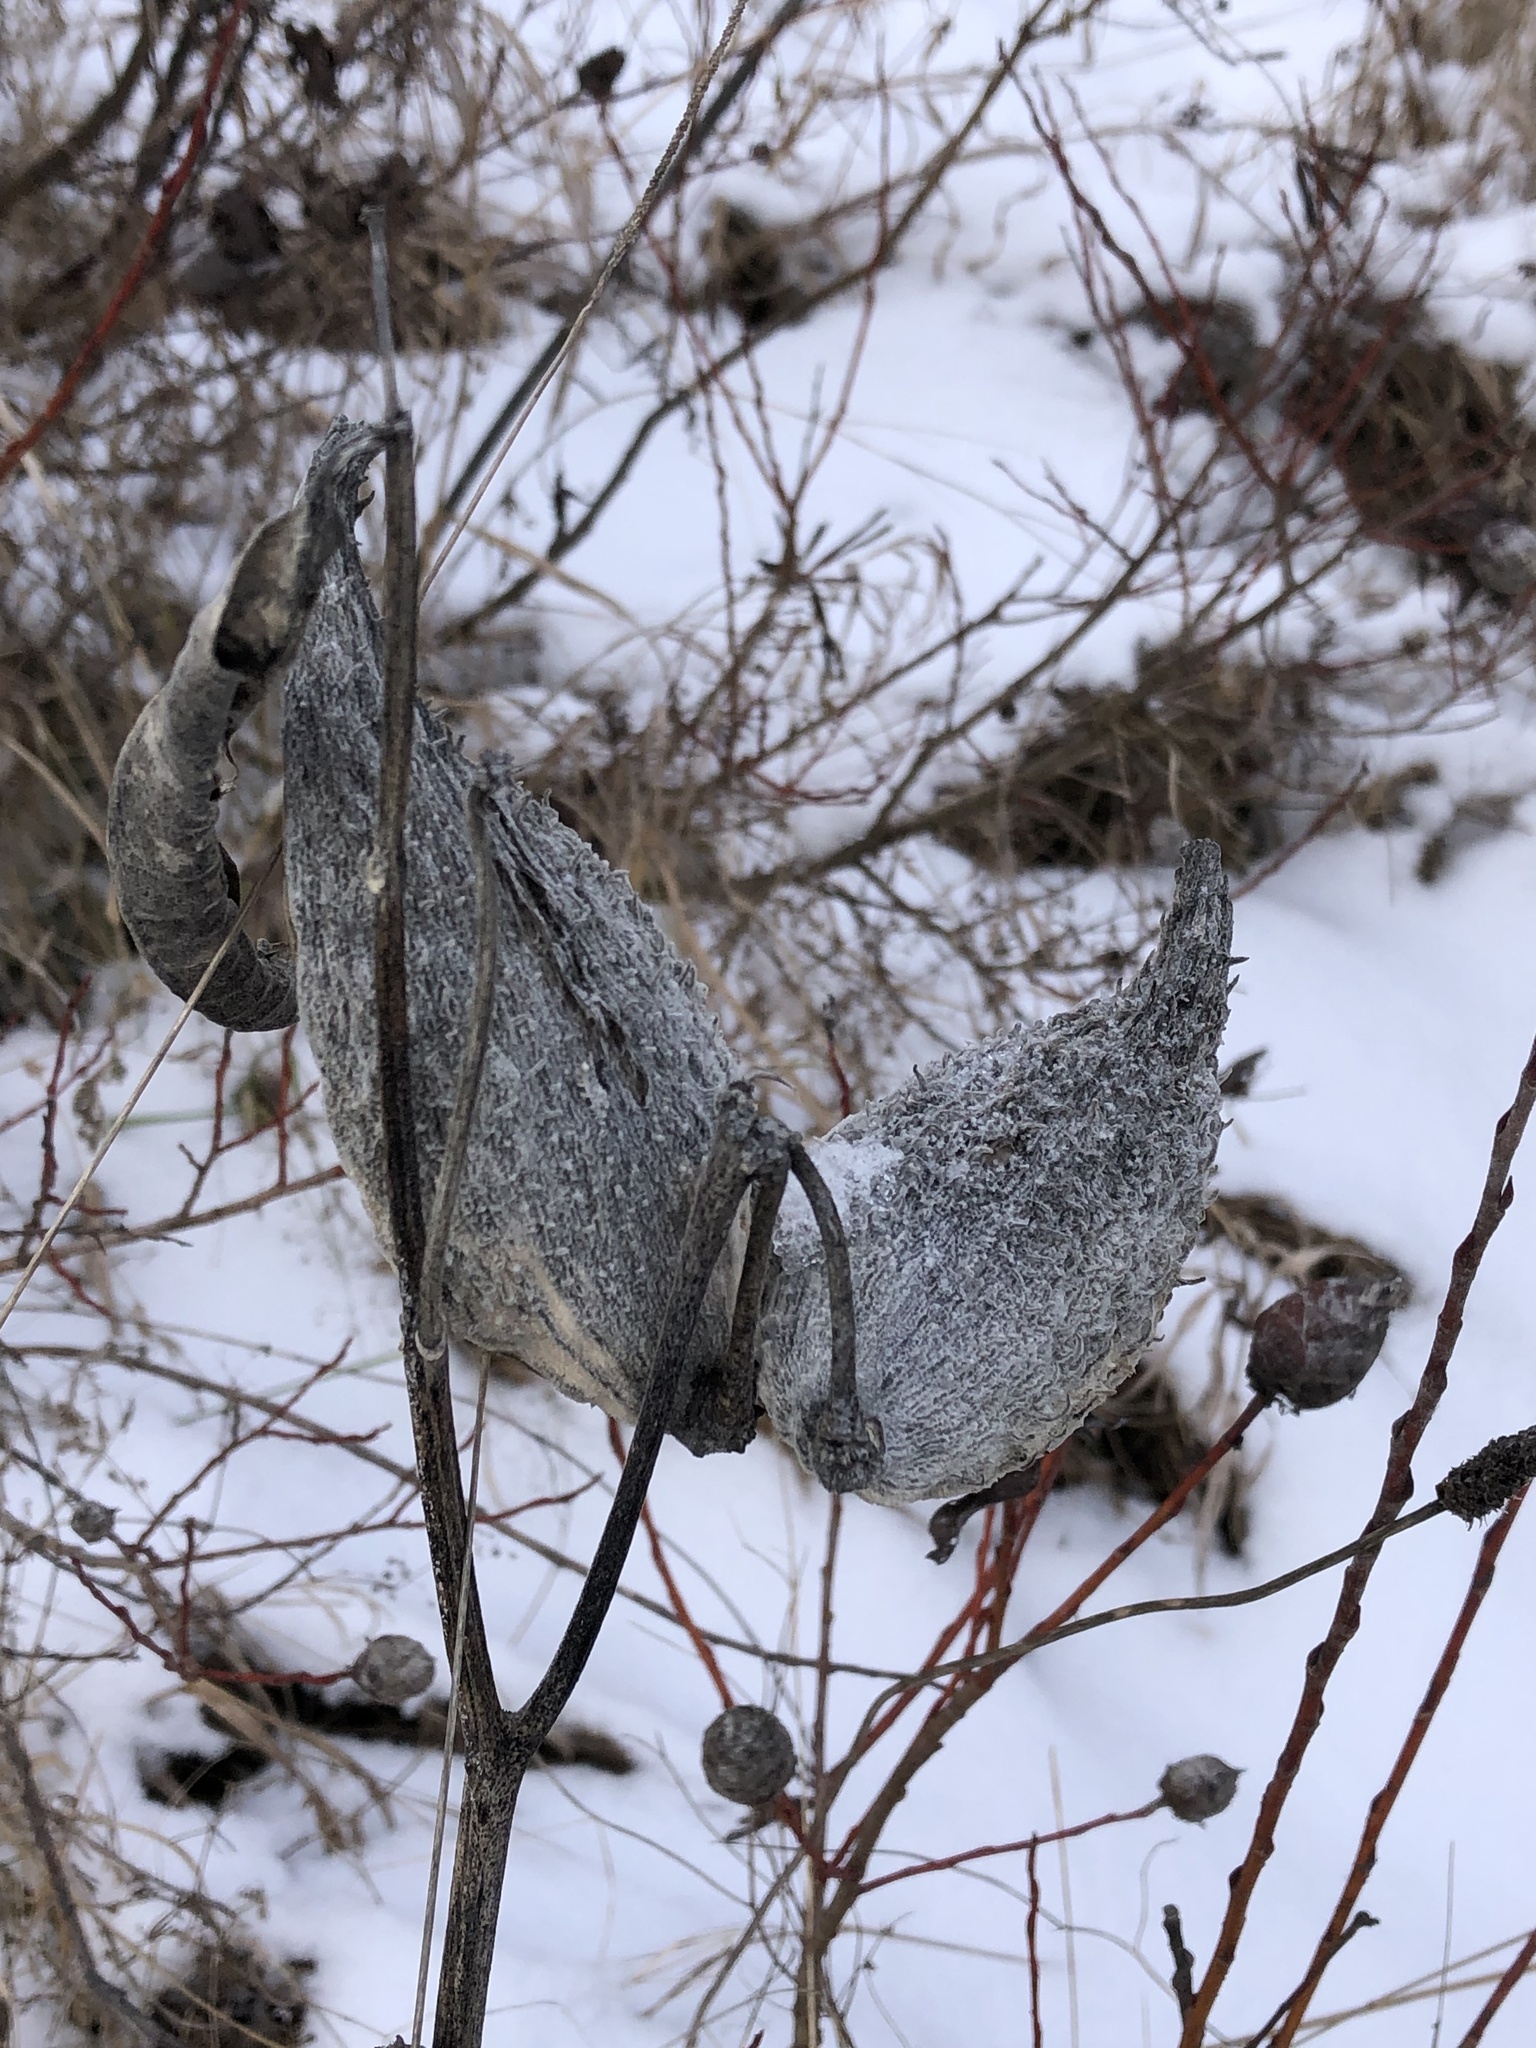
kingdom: Plantae
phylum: Tracheophyta
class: Magnoliopsida
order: Gentianales
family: Apocynaceae
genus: Asclepias
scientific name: Asclepias syriaca
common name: Common milkweed
